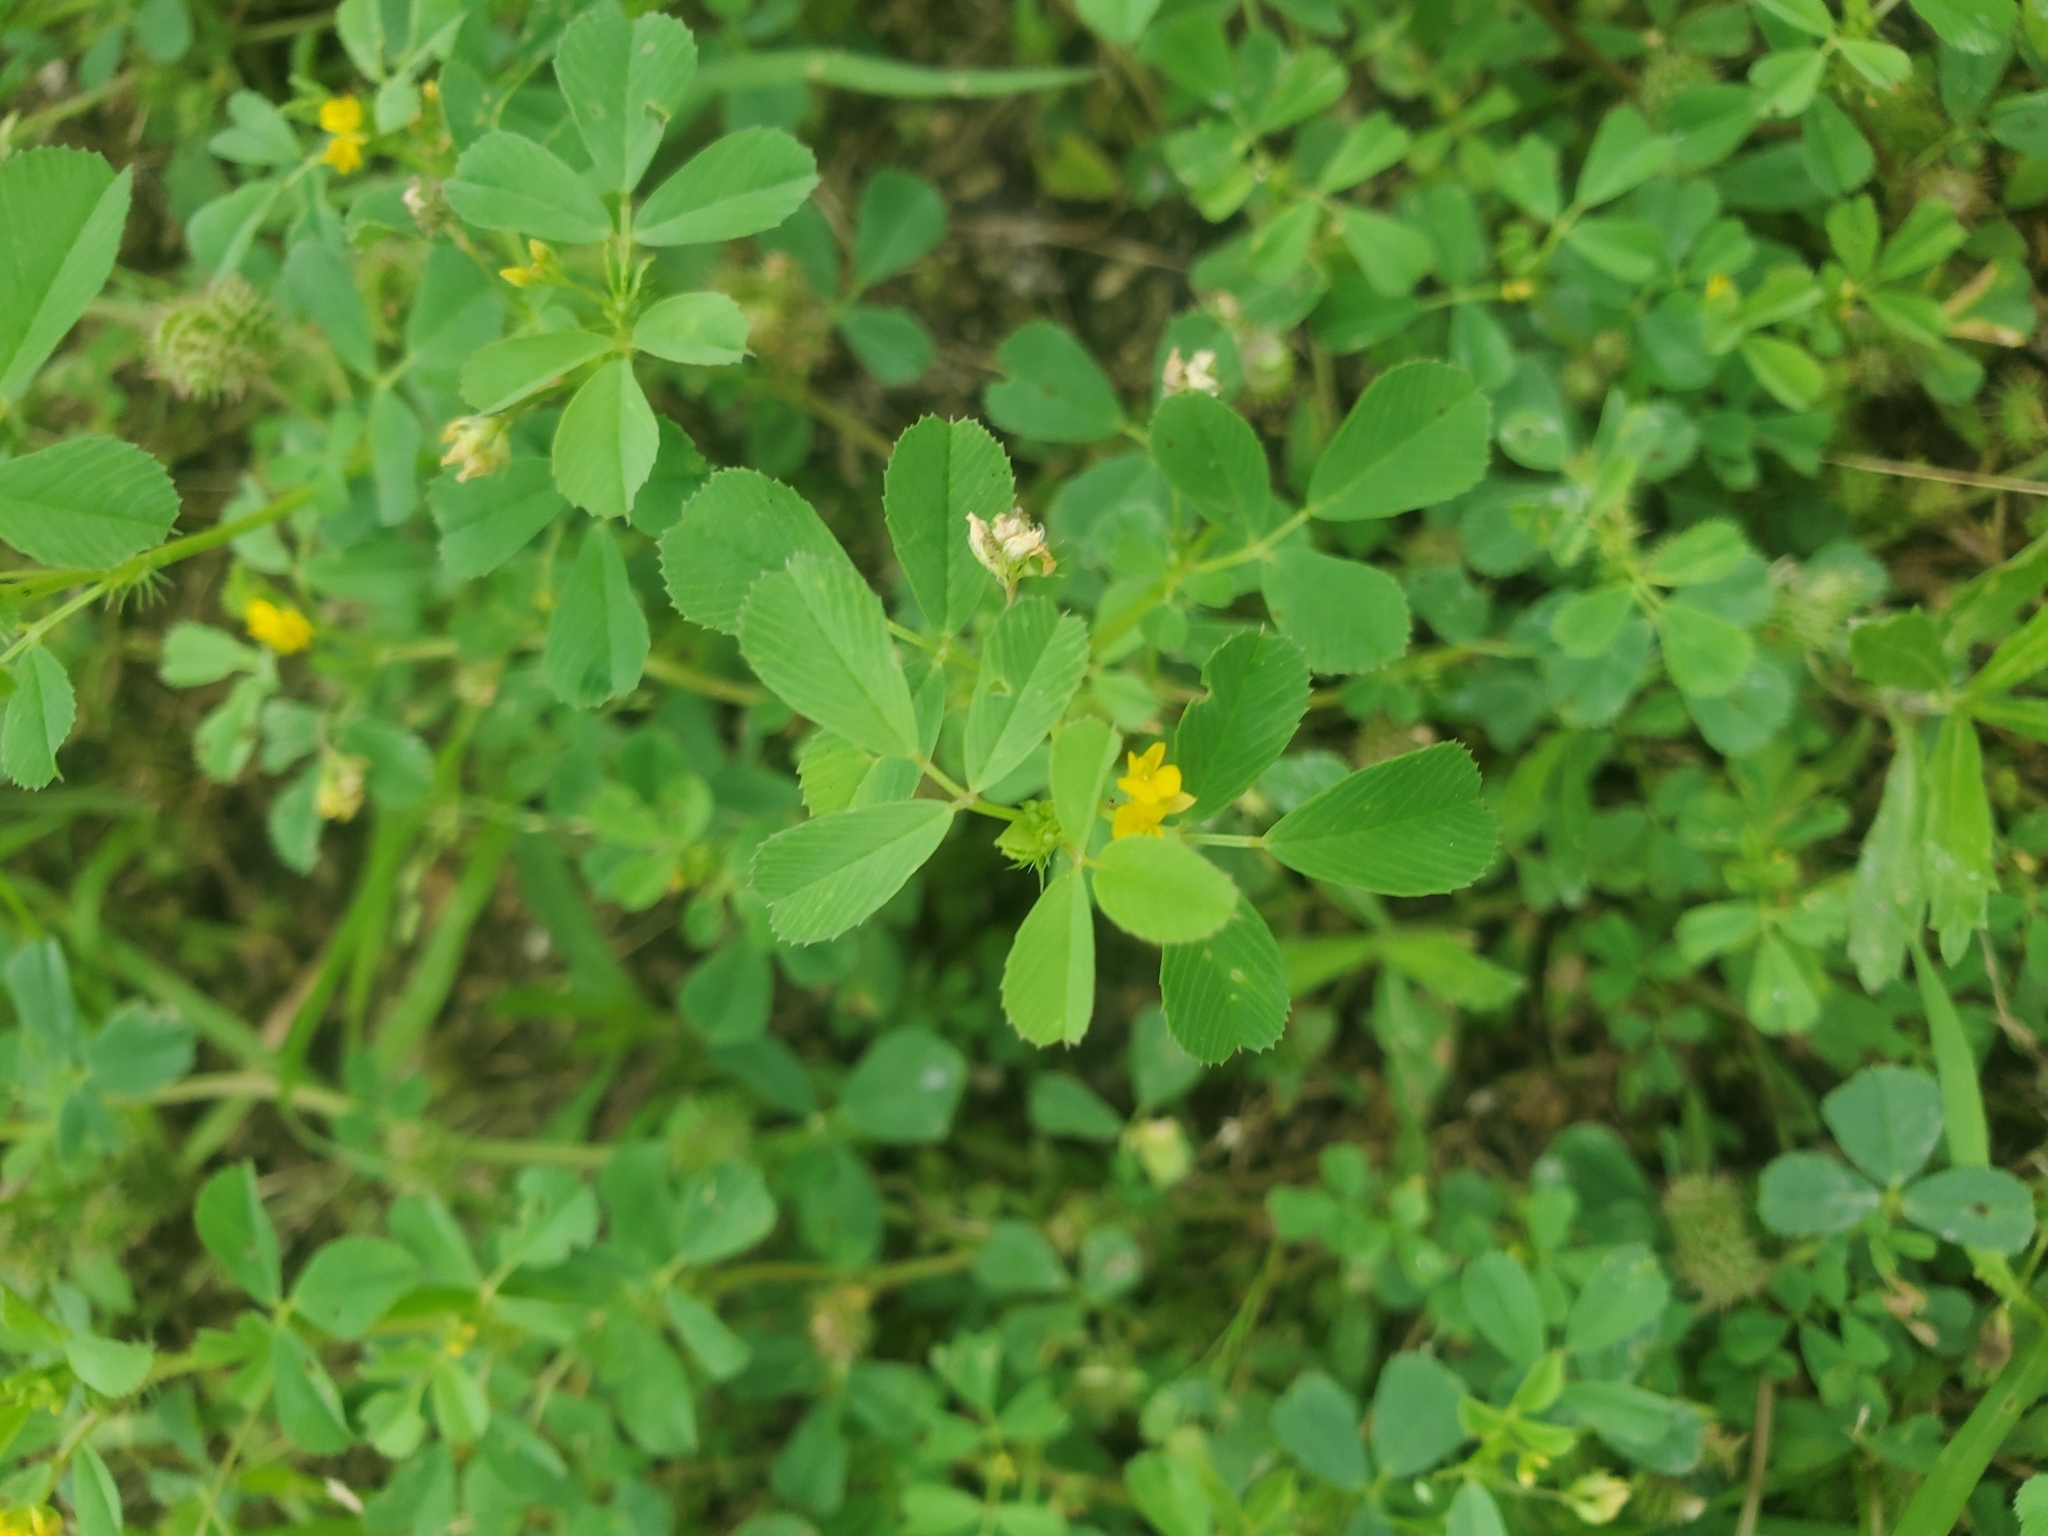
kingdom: Plantae
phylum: Tracheophyta
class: Magnoliopsida
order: Fabales
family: Fabaceae
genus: Medicago
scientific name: Medicago polymorpha
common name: Burclover
